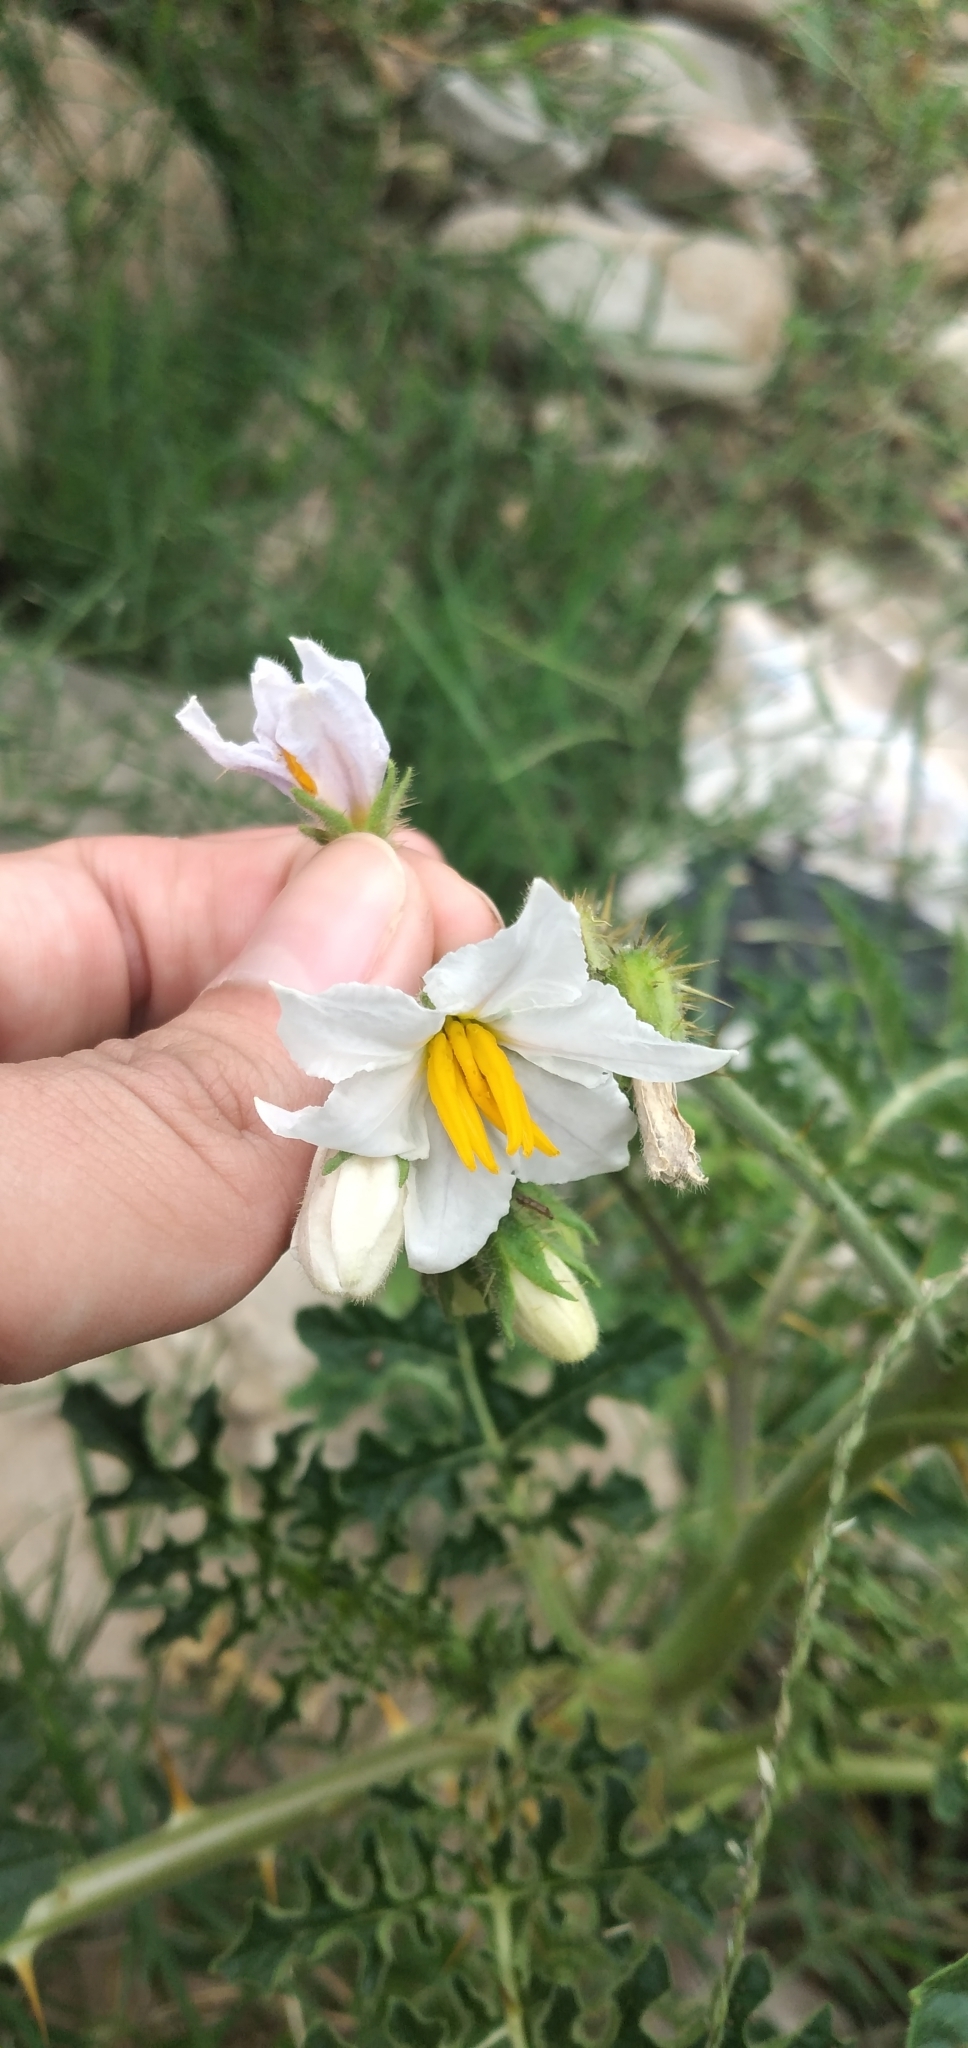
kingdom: Plantae
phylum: Tracheophyta
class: Magnoliopsida
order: Solanales
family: Solanaceae
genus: Solanum
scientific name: Solanum sisymbriifolium
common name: Red buffalo-bur
